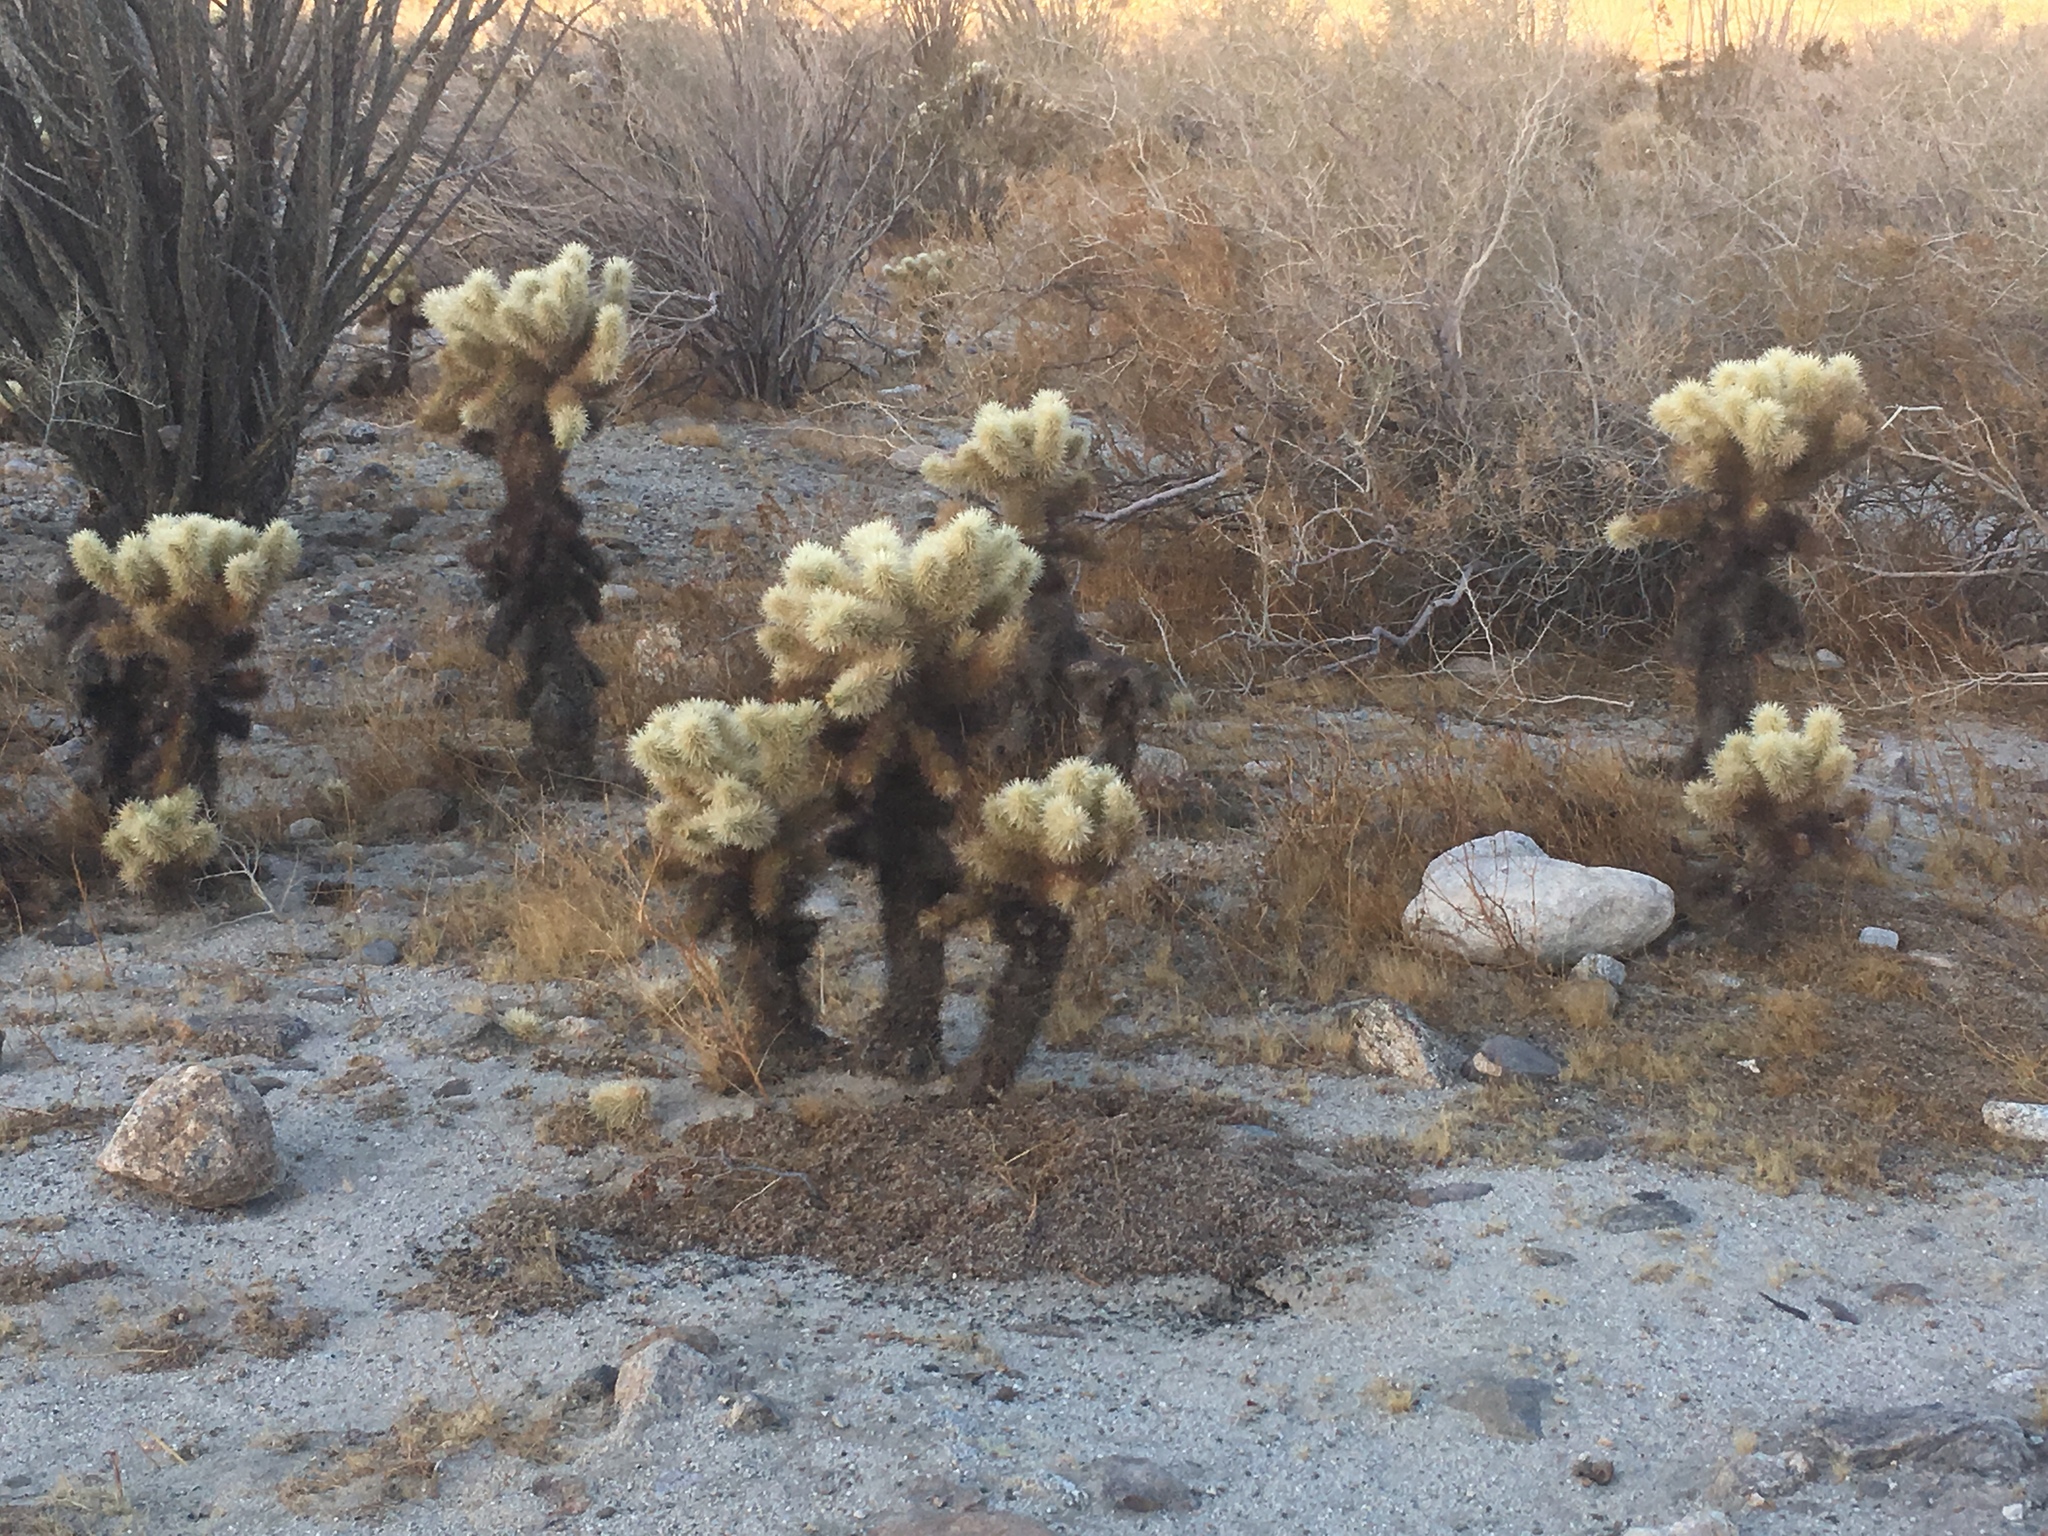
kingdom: Plantae
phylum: Tracheophyta
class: Magnoliopsida
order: Caryophyllales
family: Cactaceae
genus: Cylindropuntia
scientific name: Cylindropuntia fosbergii
